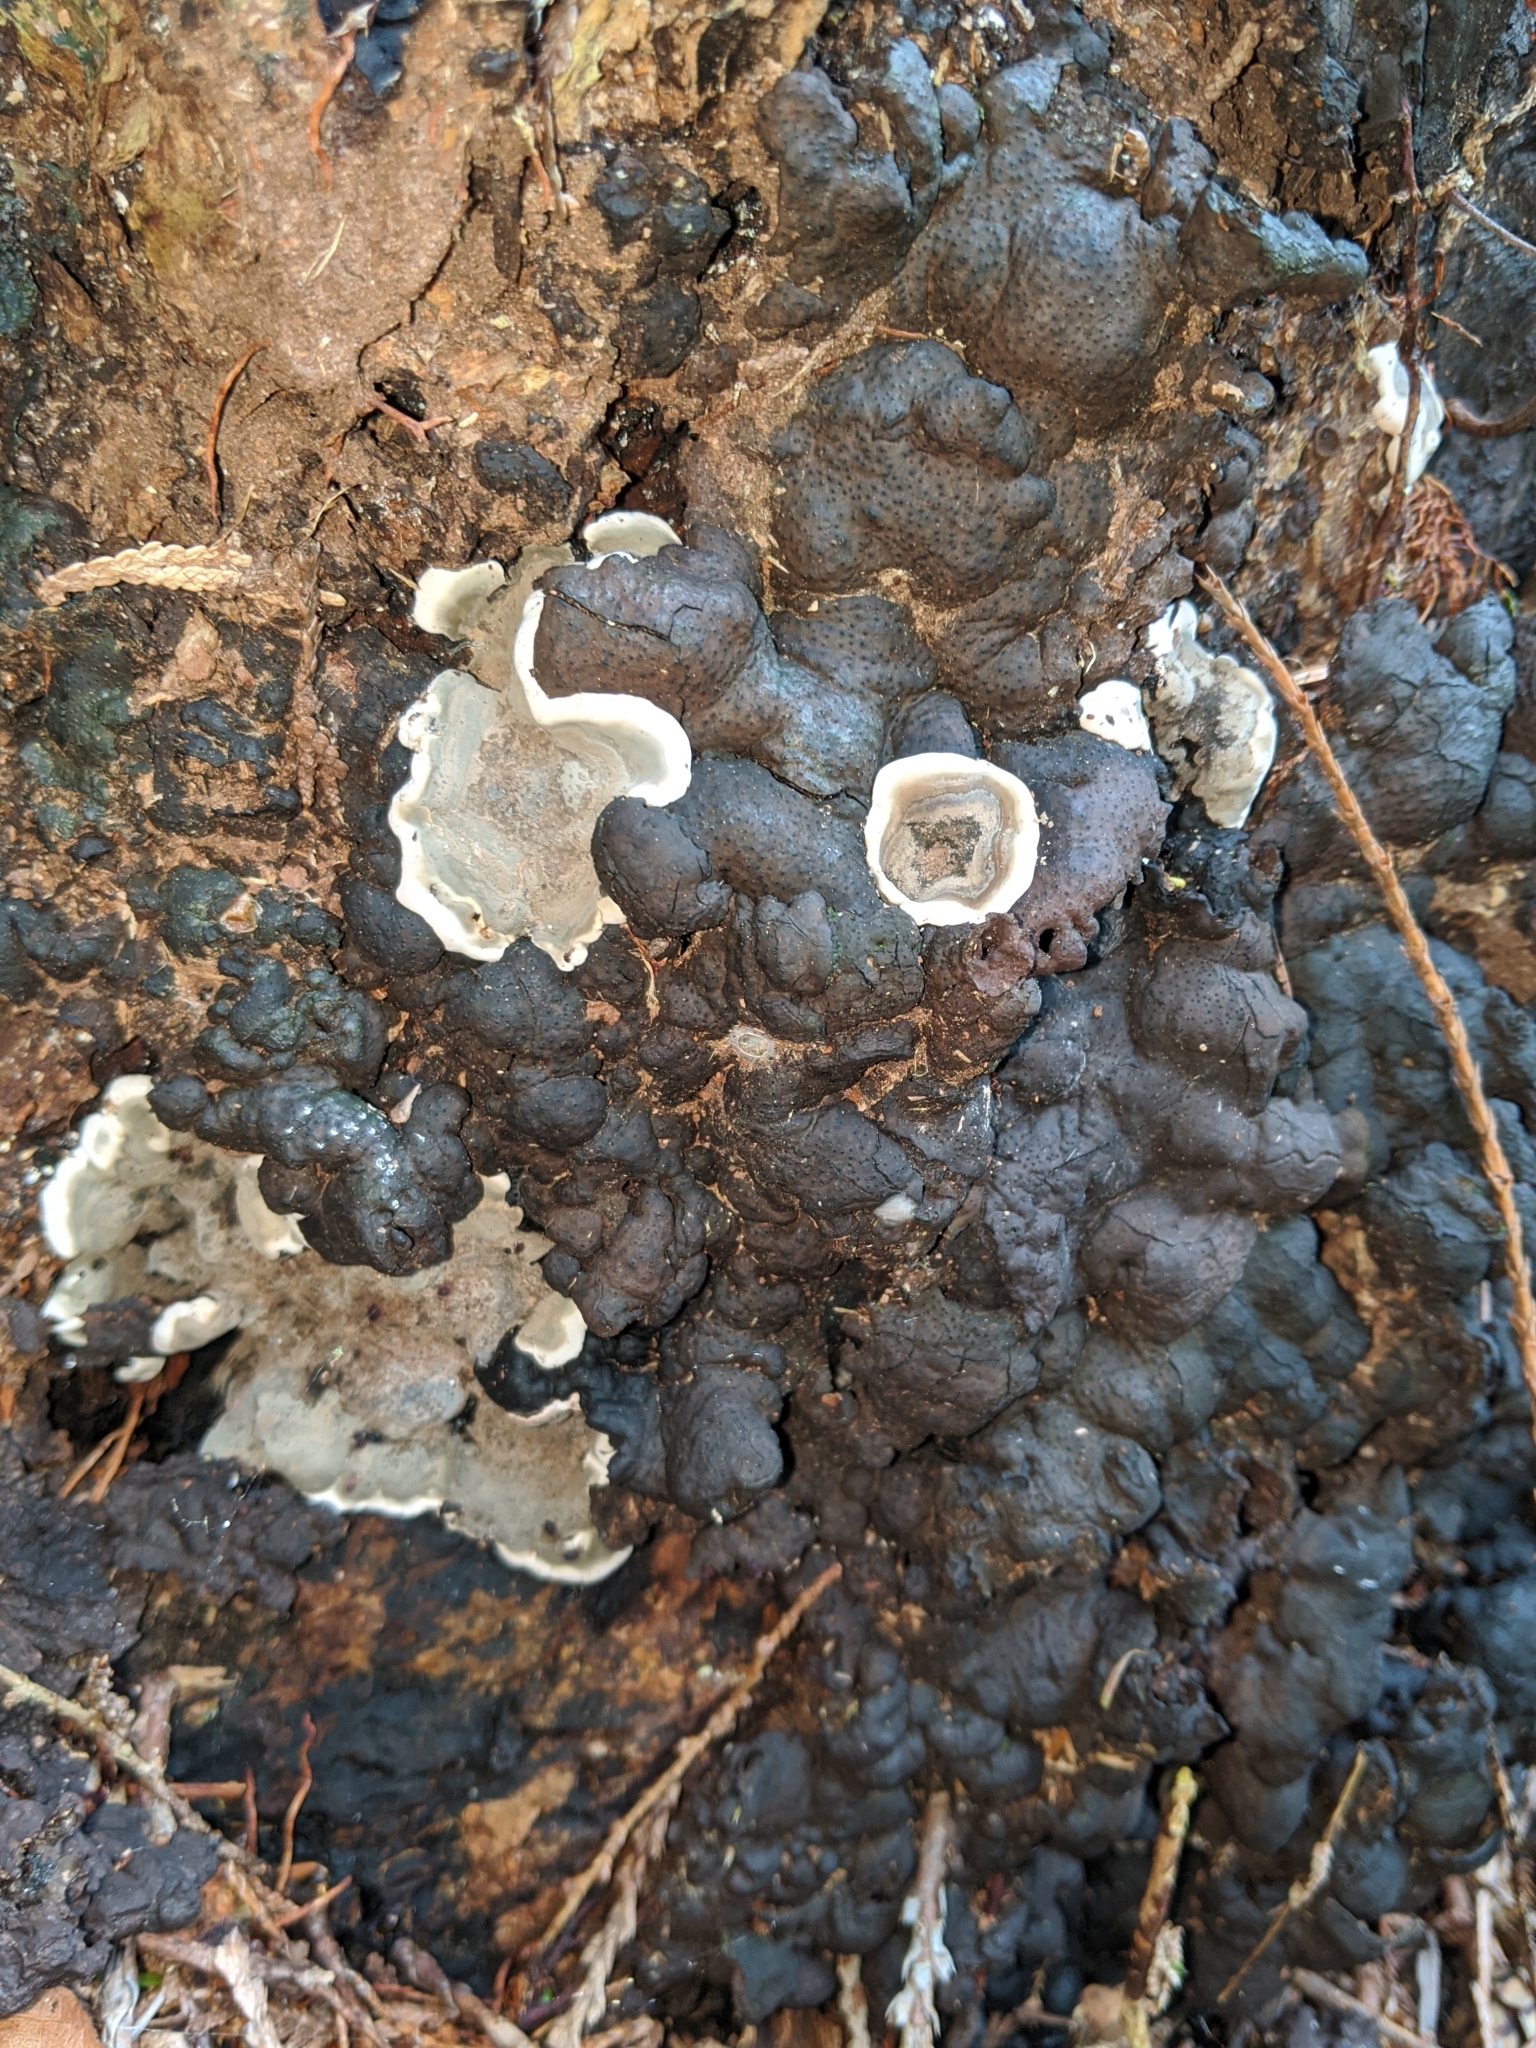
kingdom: Fungi
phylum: Ascomycota
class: Sordariomycetes
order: Xylariales
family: Xylariaceae
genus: Kretzschmaria
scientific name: Kretzschmaria deusta
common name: Brittle cinder
